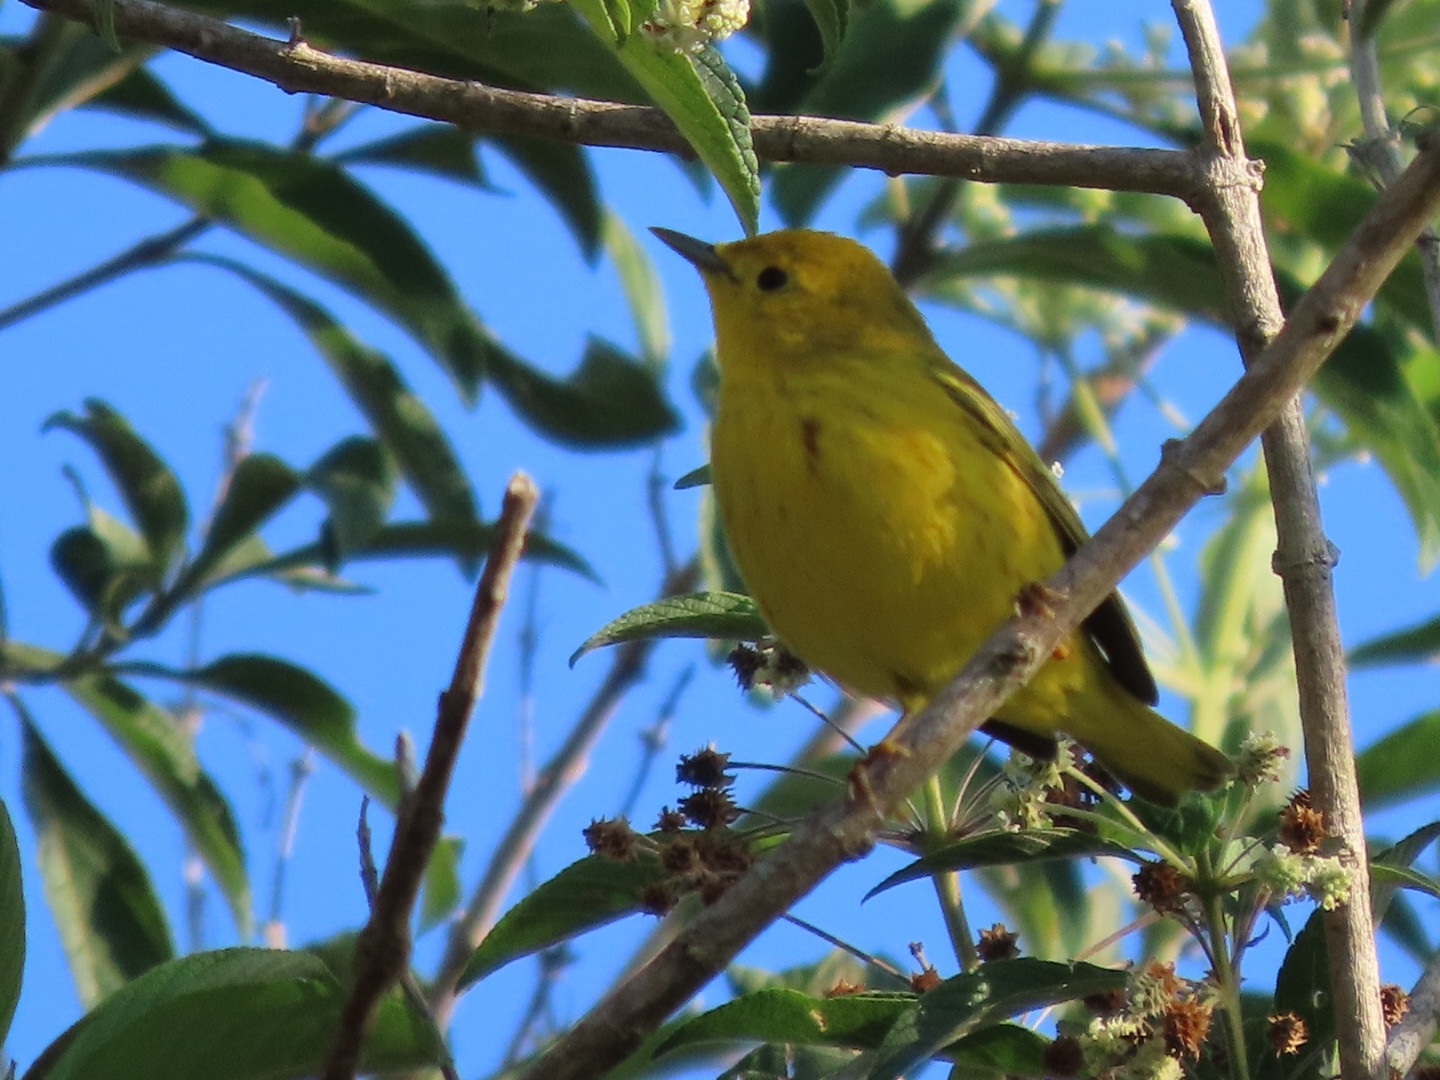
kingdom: Animalia
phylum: Chordata
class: Aves
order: Passeriformes
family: Parulidae
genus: Setophaga
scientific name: Setophaga petechia
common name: Yellow warbler
